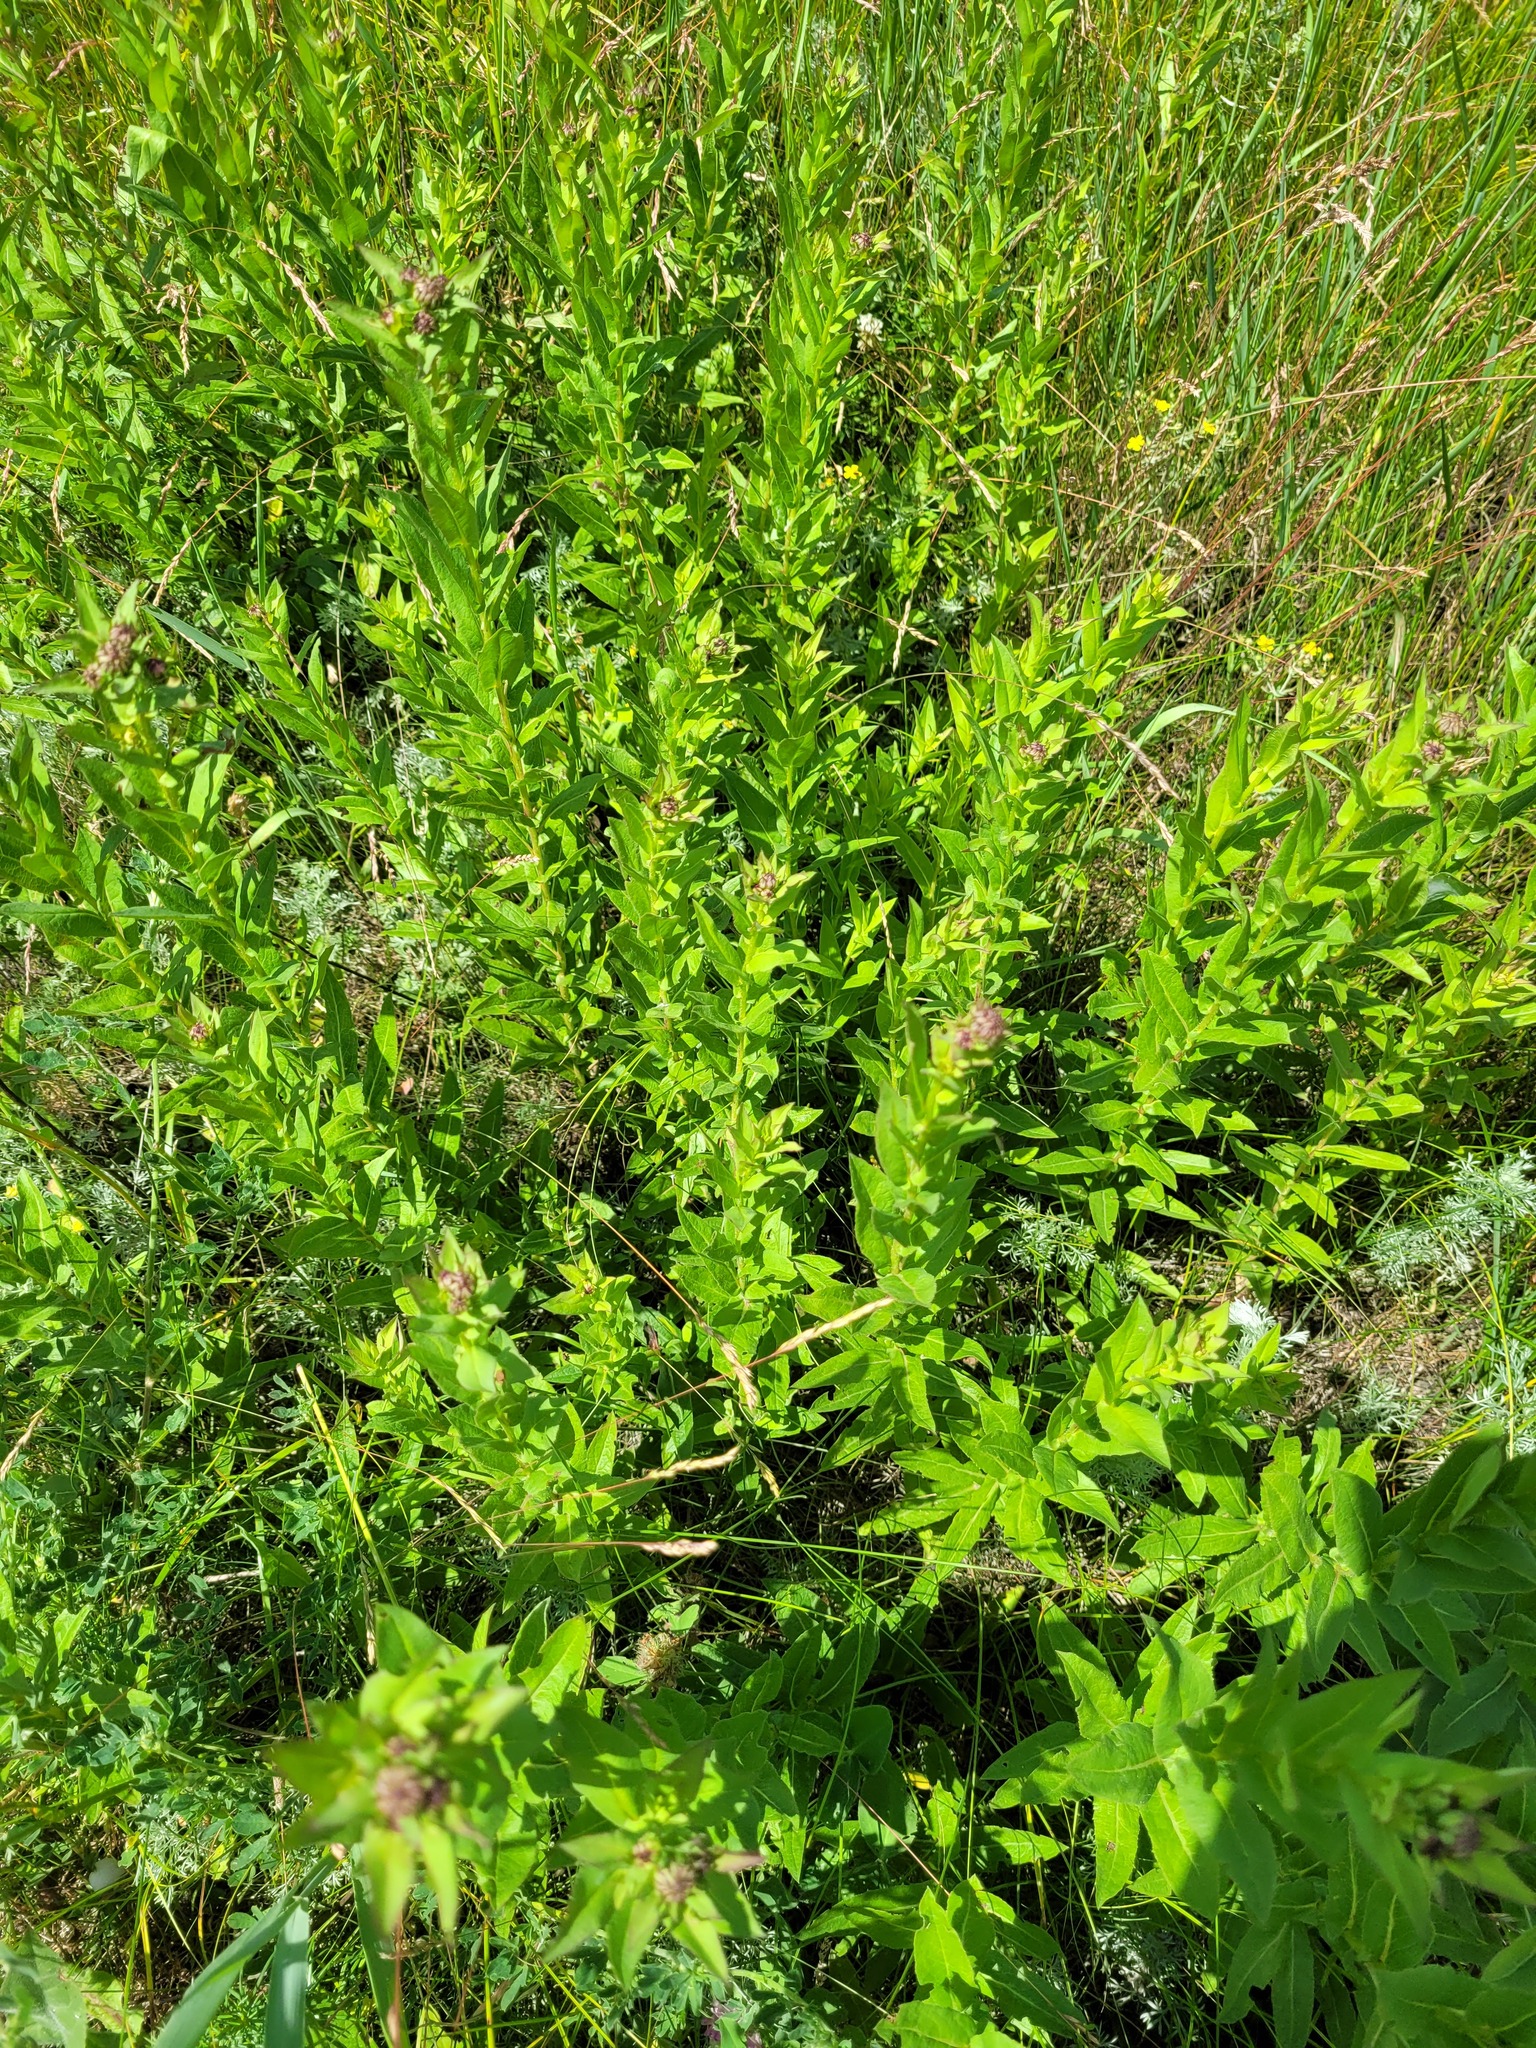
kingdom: Plantae
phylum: Tracheophyta
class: Magnoliopsida
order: Asterales
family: Asteraceae
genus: Pentanema
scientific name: Pentanema asperum
